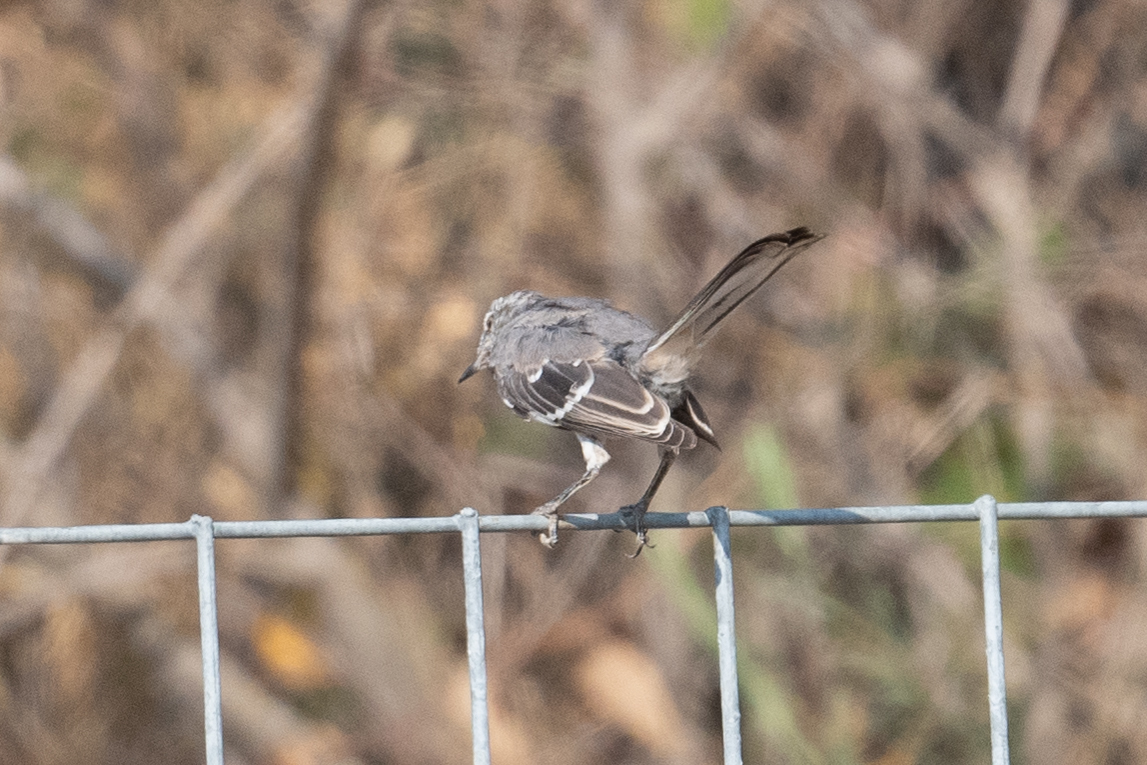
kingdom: Animalia
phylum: Chordata
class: Aves
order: Passeriformes
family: Mimidae
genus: Mimus
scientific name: Mimus polyglottos
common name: Northern mockingbird
